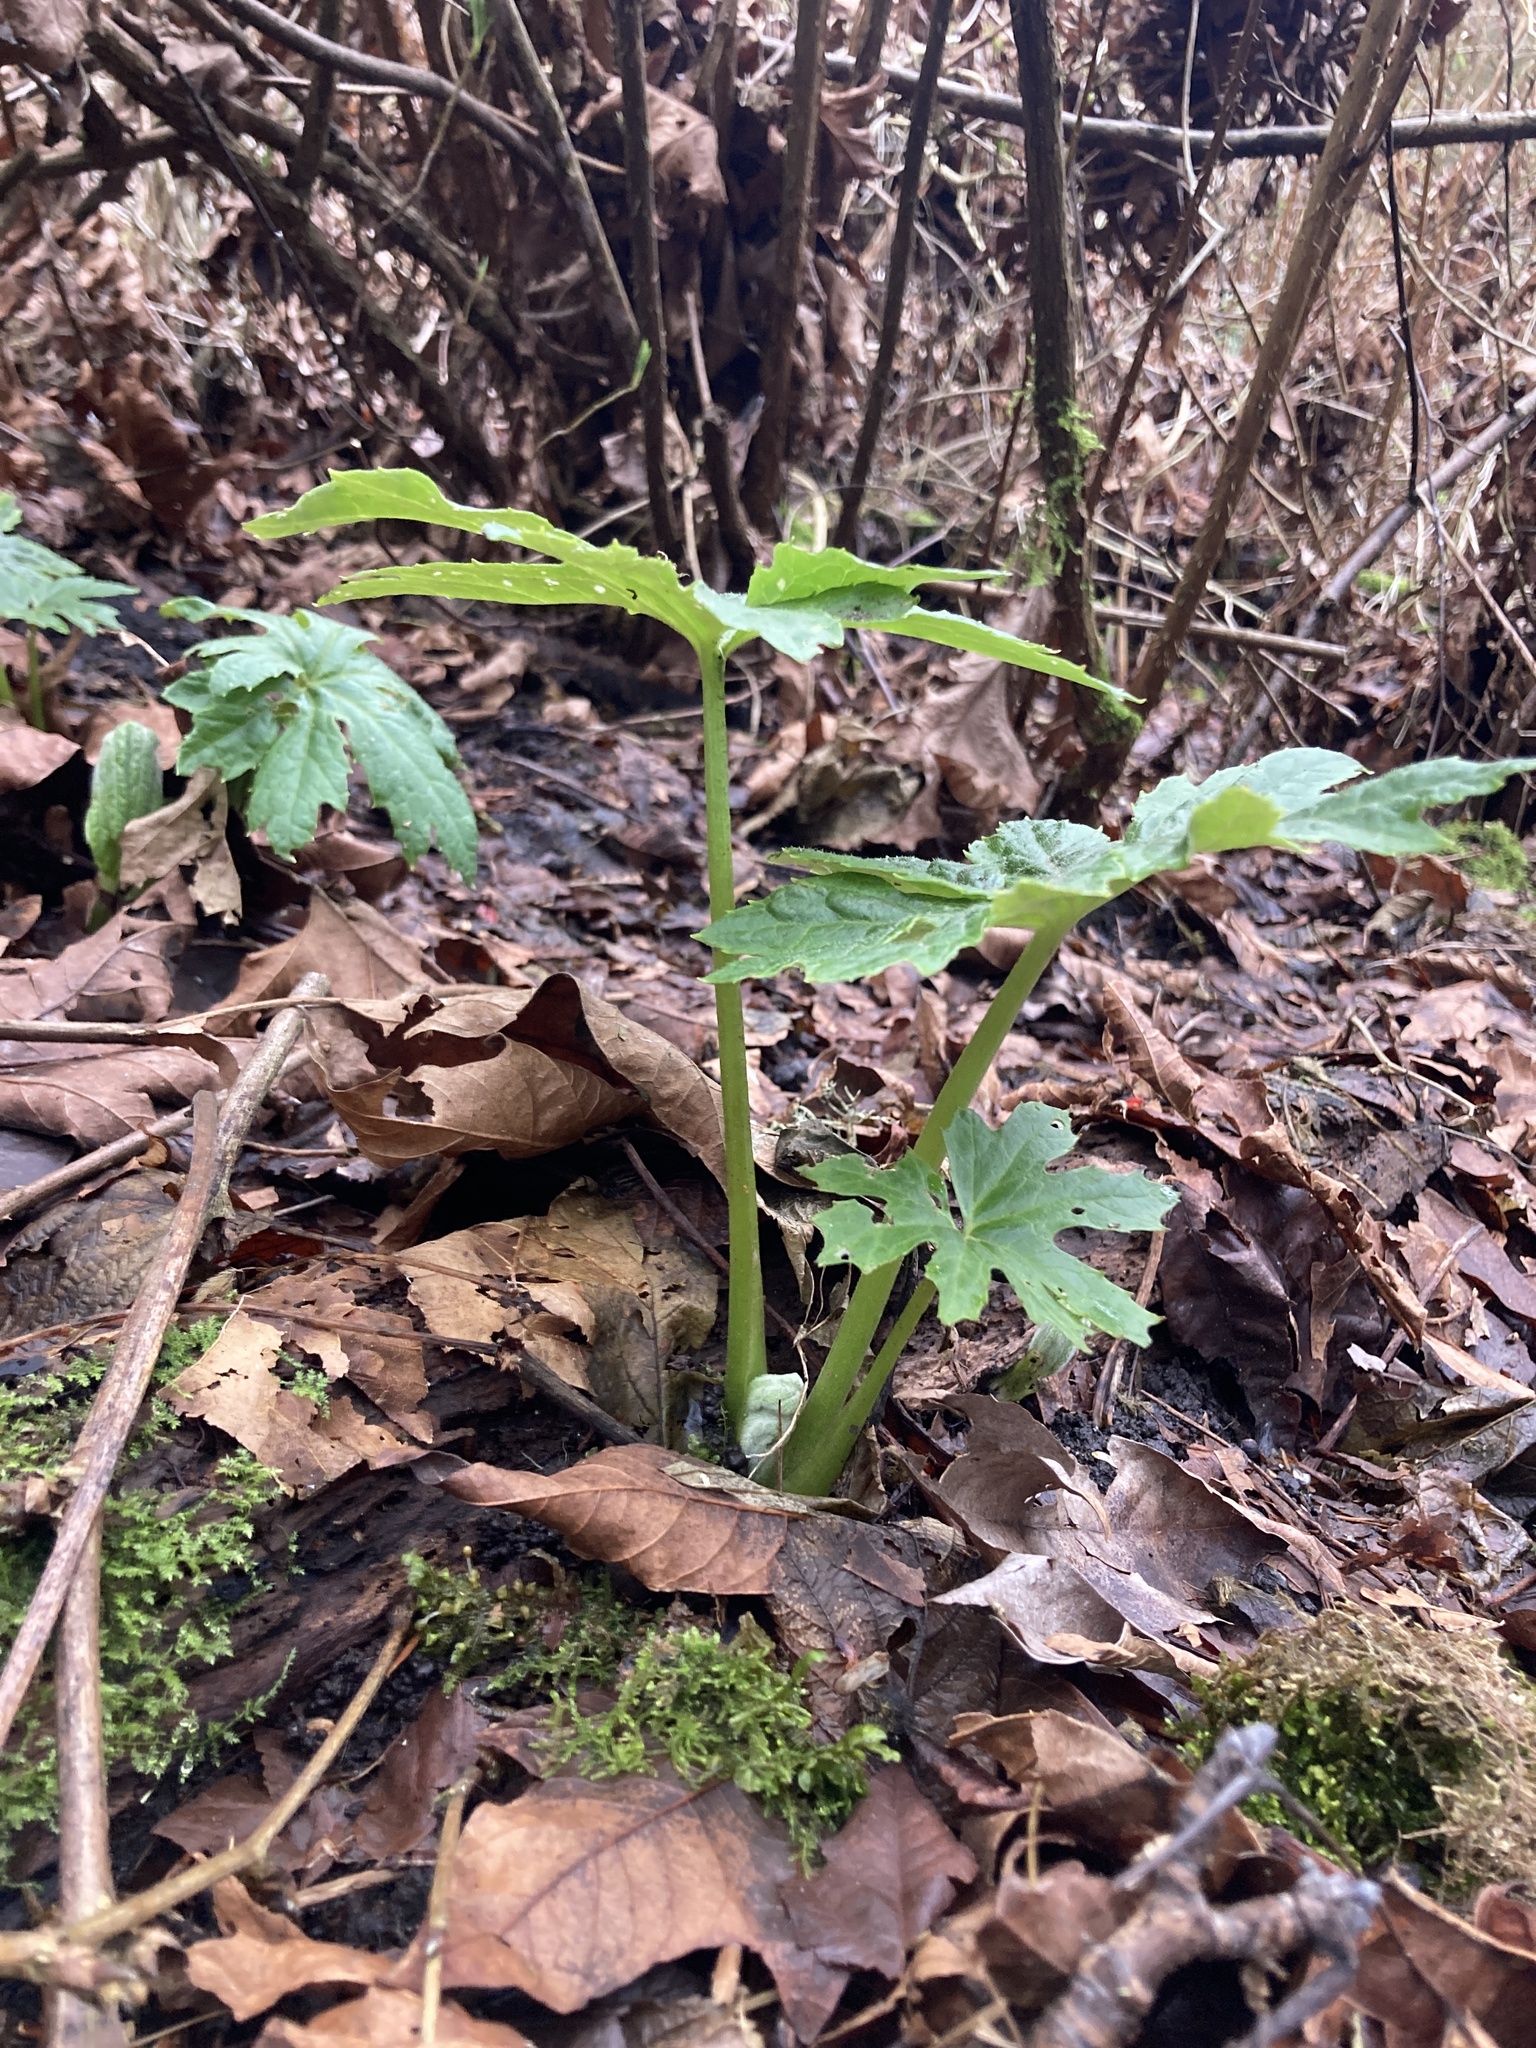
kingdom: Plantae
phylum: Tracheophyta
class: Magnoliopsida
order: Asterales
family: Asteraceae
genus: Petasites
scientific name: Petasites frigidus
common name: Arctic butterbur
